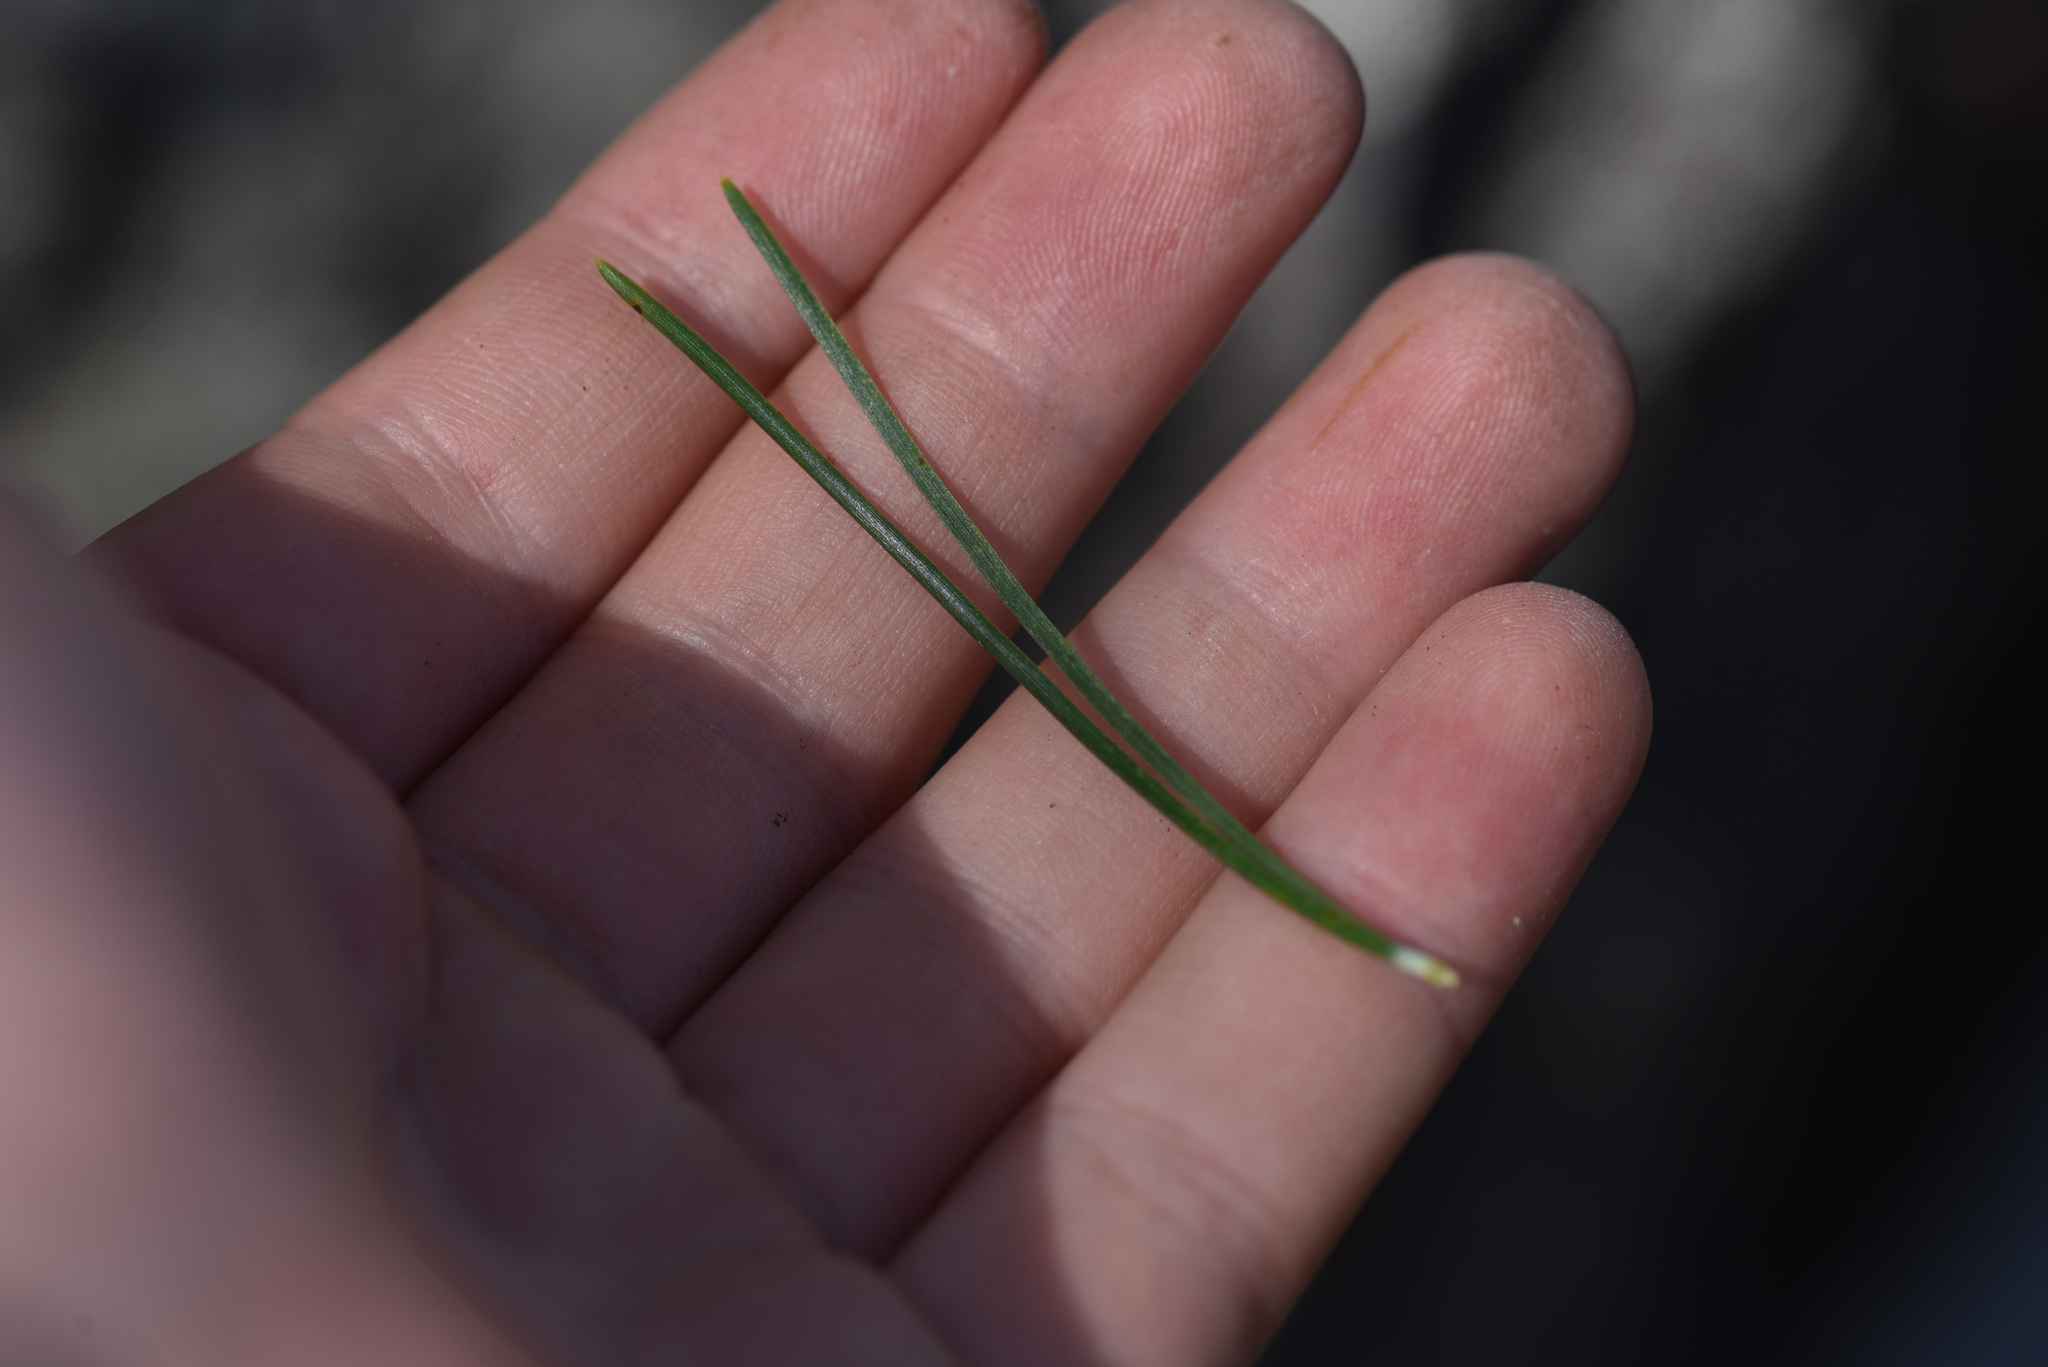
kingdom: Plantae
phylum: Tracheophyta
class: Pinopsida
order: Pinales
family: Pinaceae
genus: Pinus
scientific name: Pinus contorta
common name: Lodgepole pine
